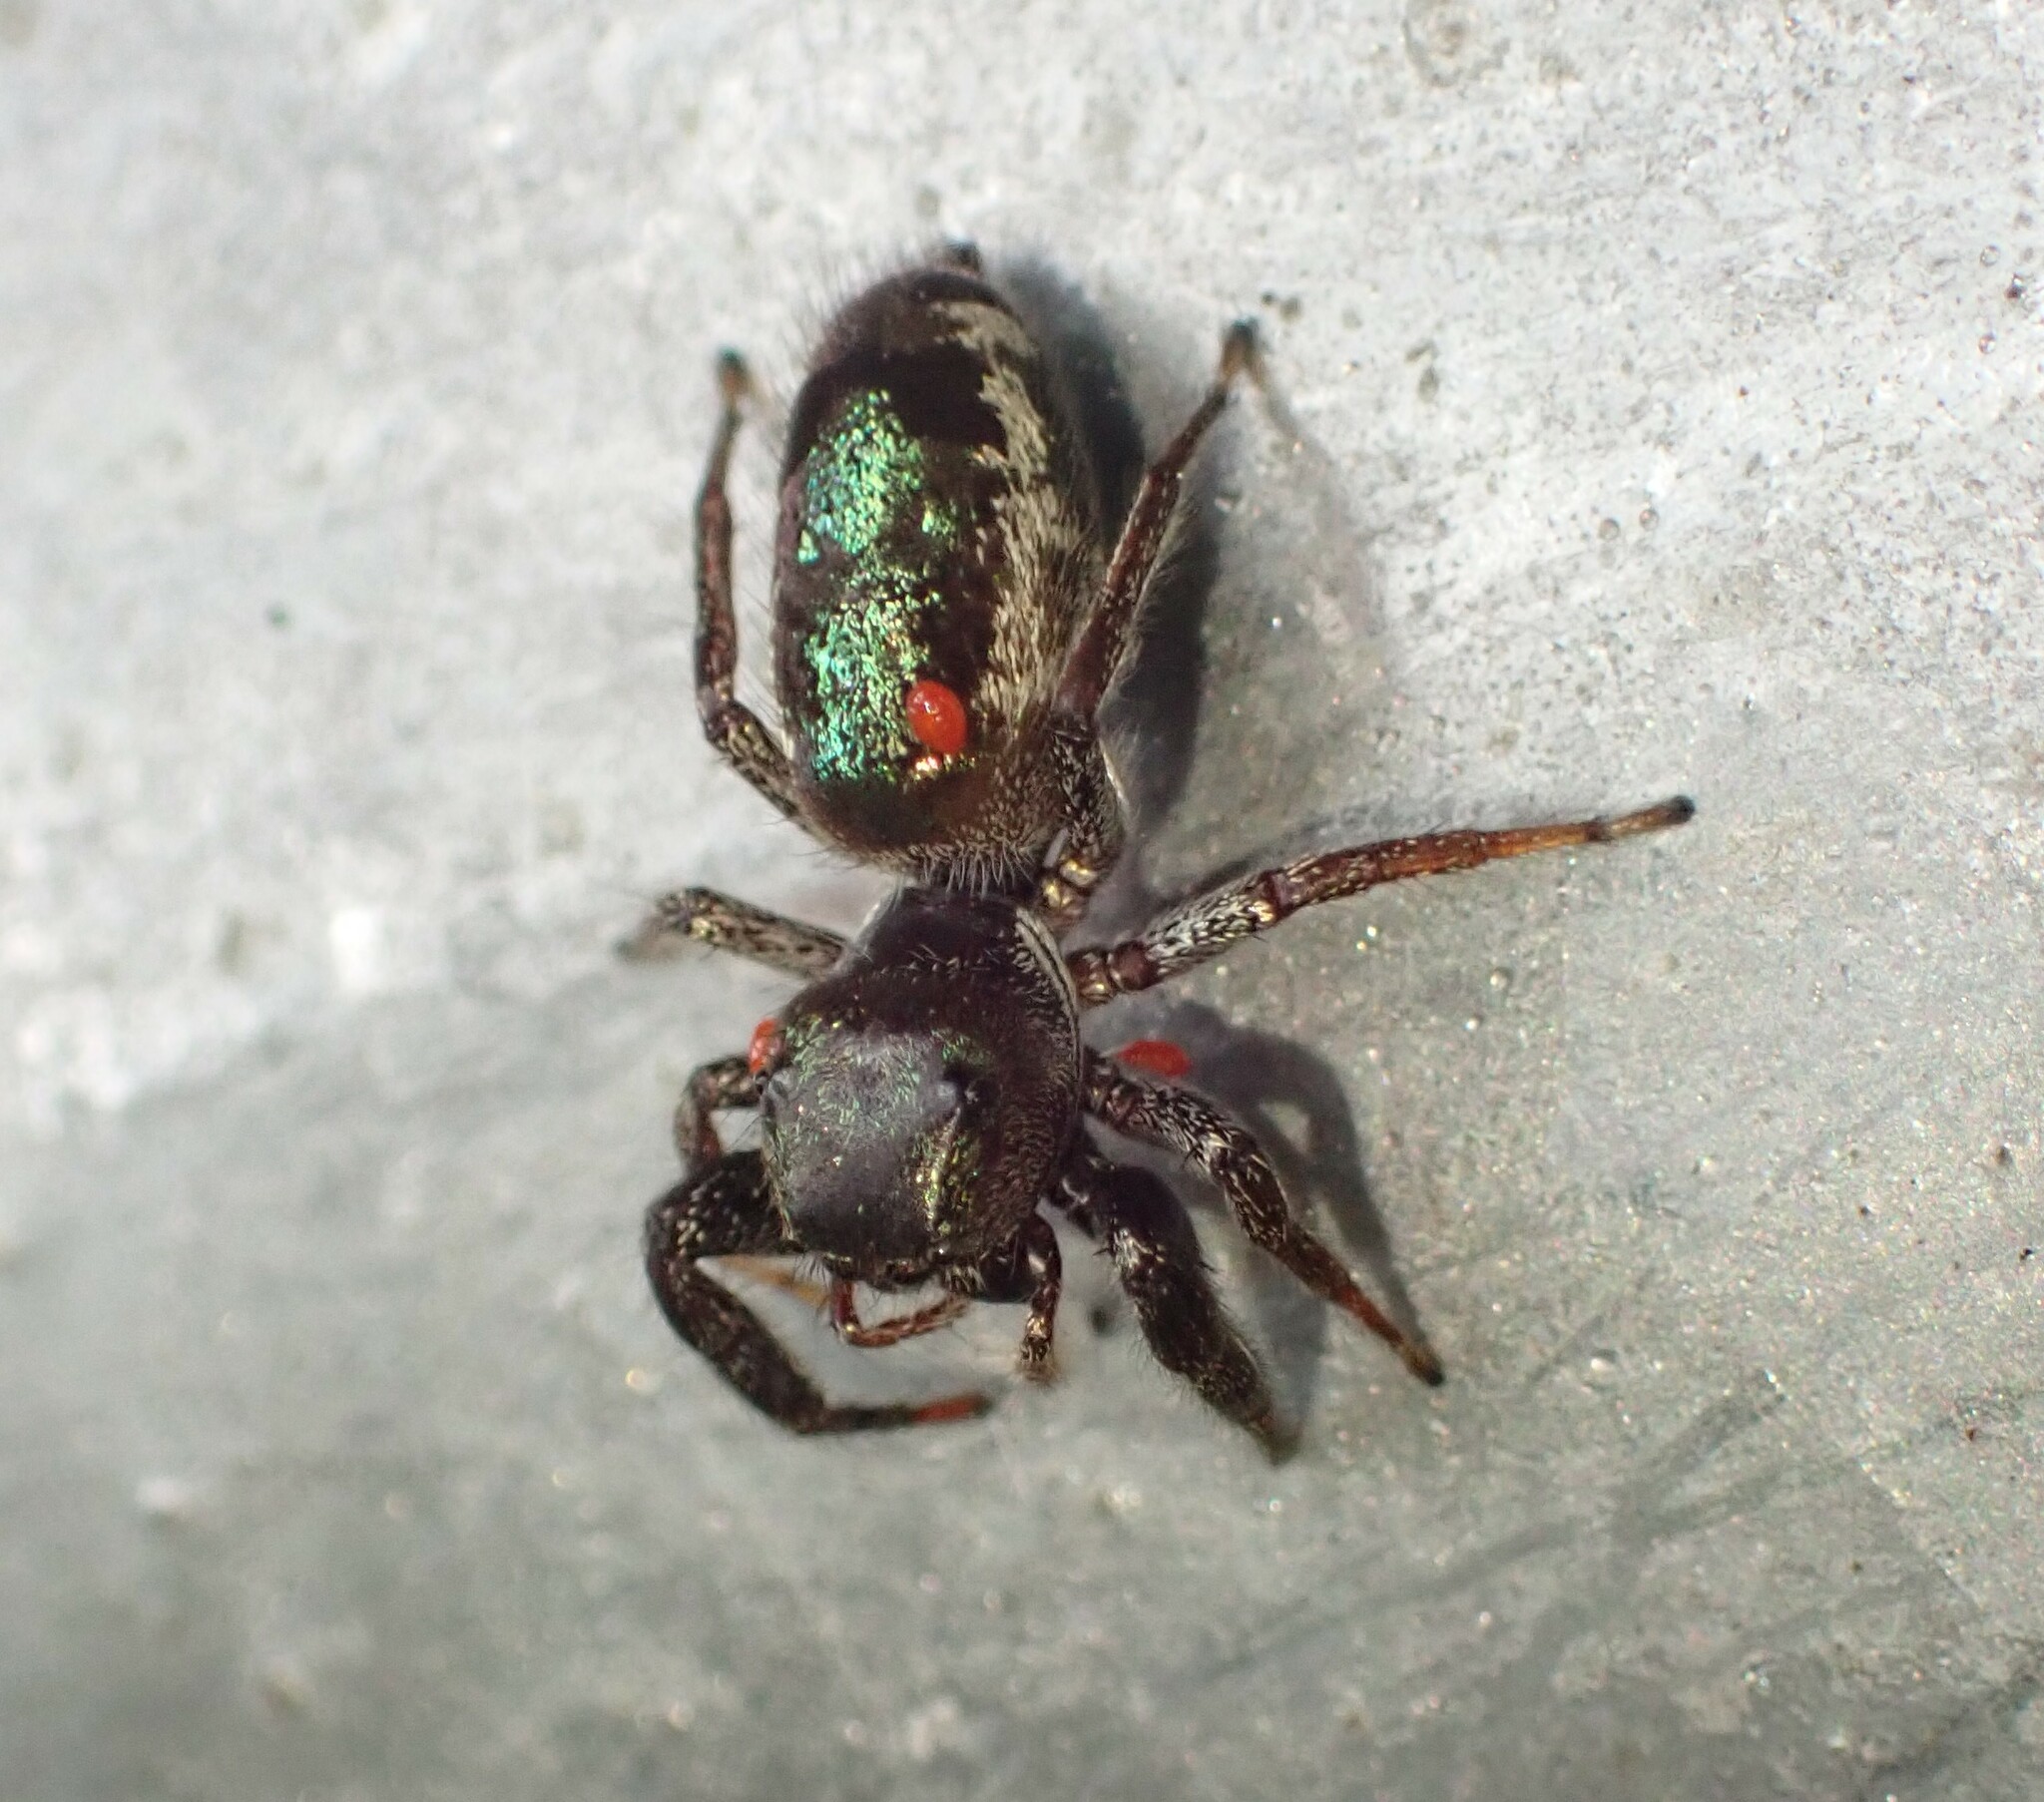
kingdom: Animalia
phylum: Arthropoda
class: Arachnida
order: Araneae
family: Salticidae
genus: Bryantella
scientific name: Bryantella smaragda
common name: Jumping spiders
